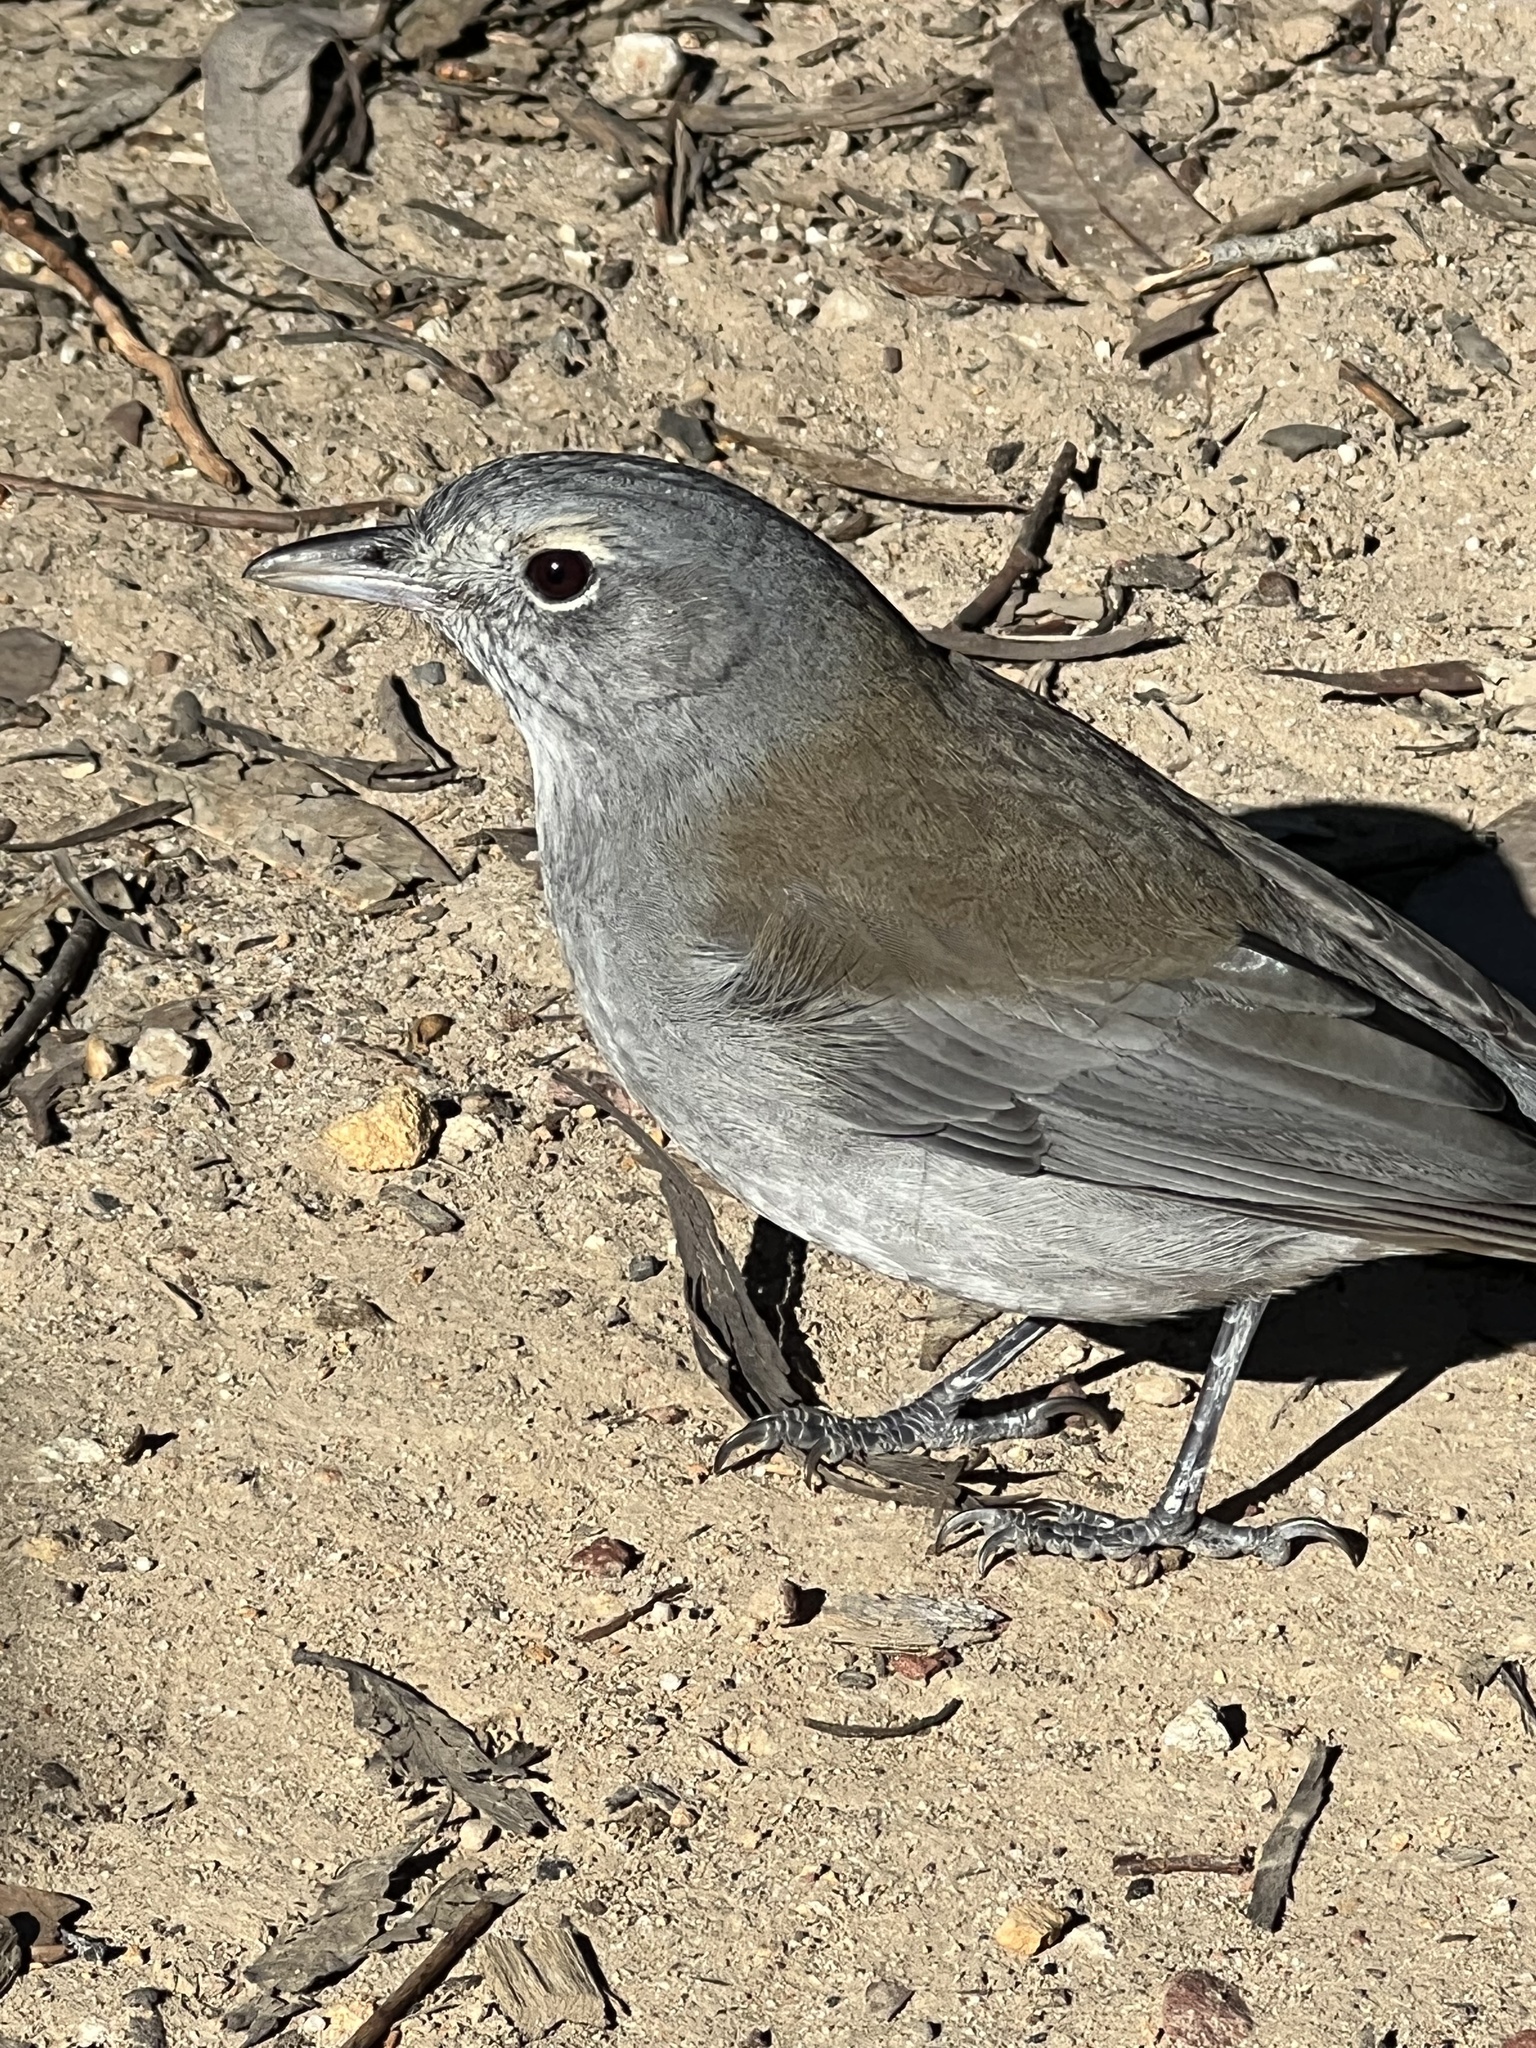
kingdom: Animalia
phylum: Chordata
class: Aves
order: Passeriformes
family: Pachycephalidae
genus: Colluricincla
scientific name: Colluricincla harmonica
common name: Grey shrikethrush
